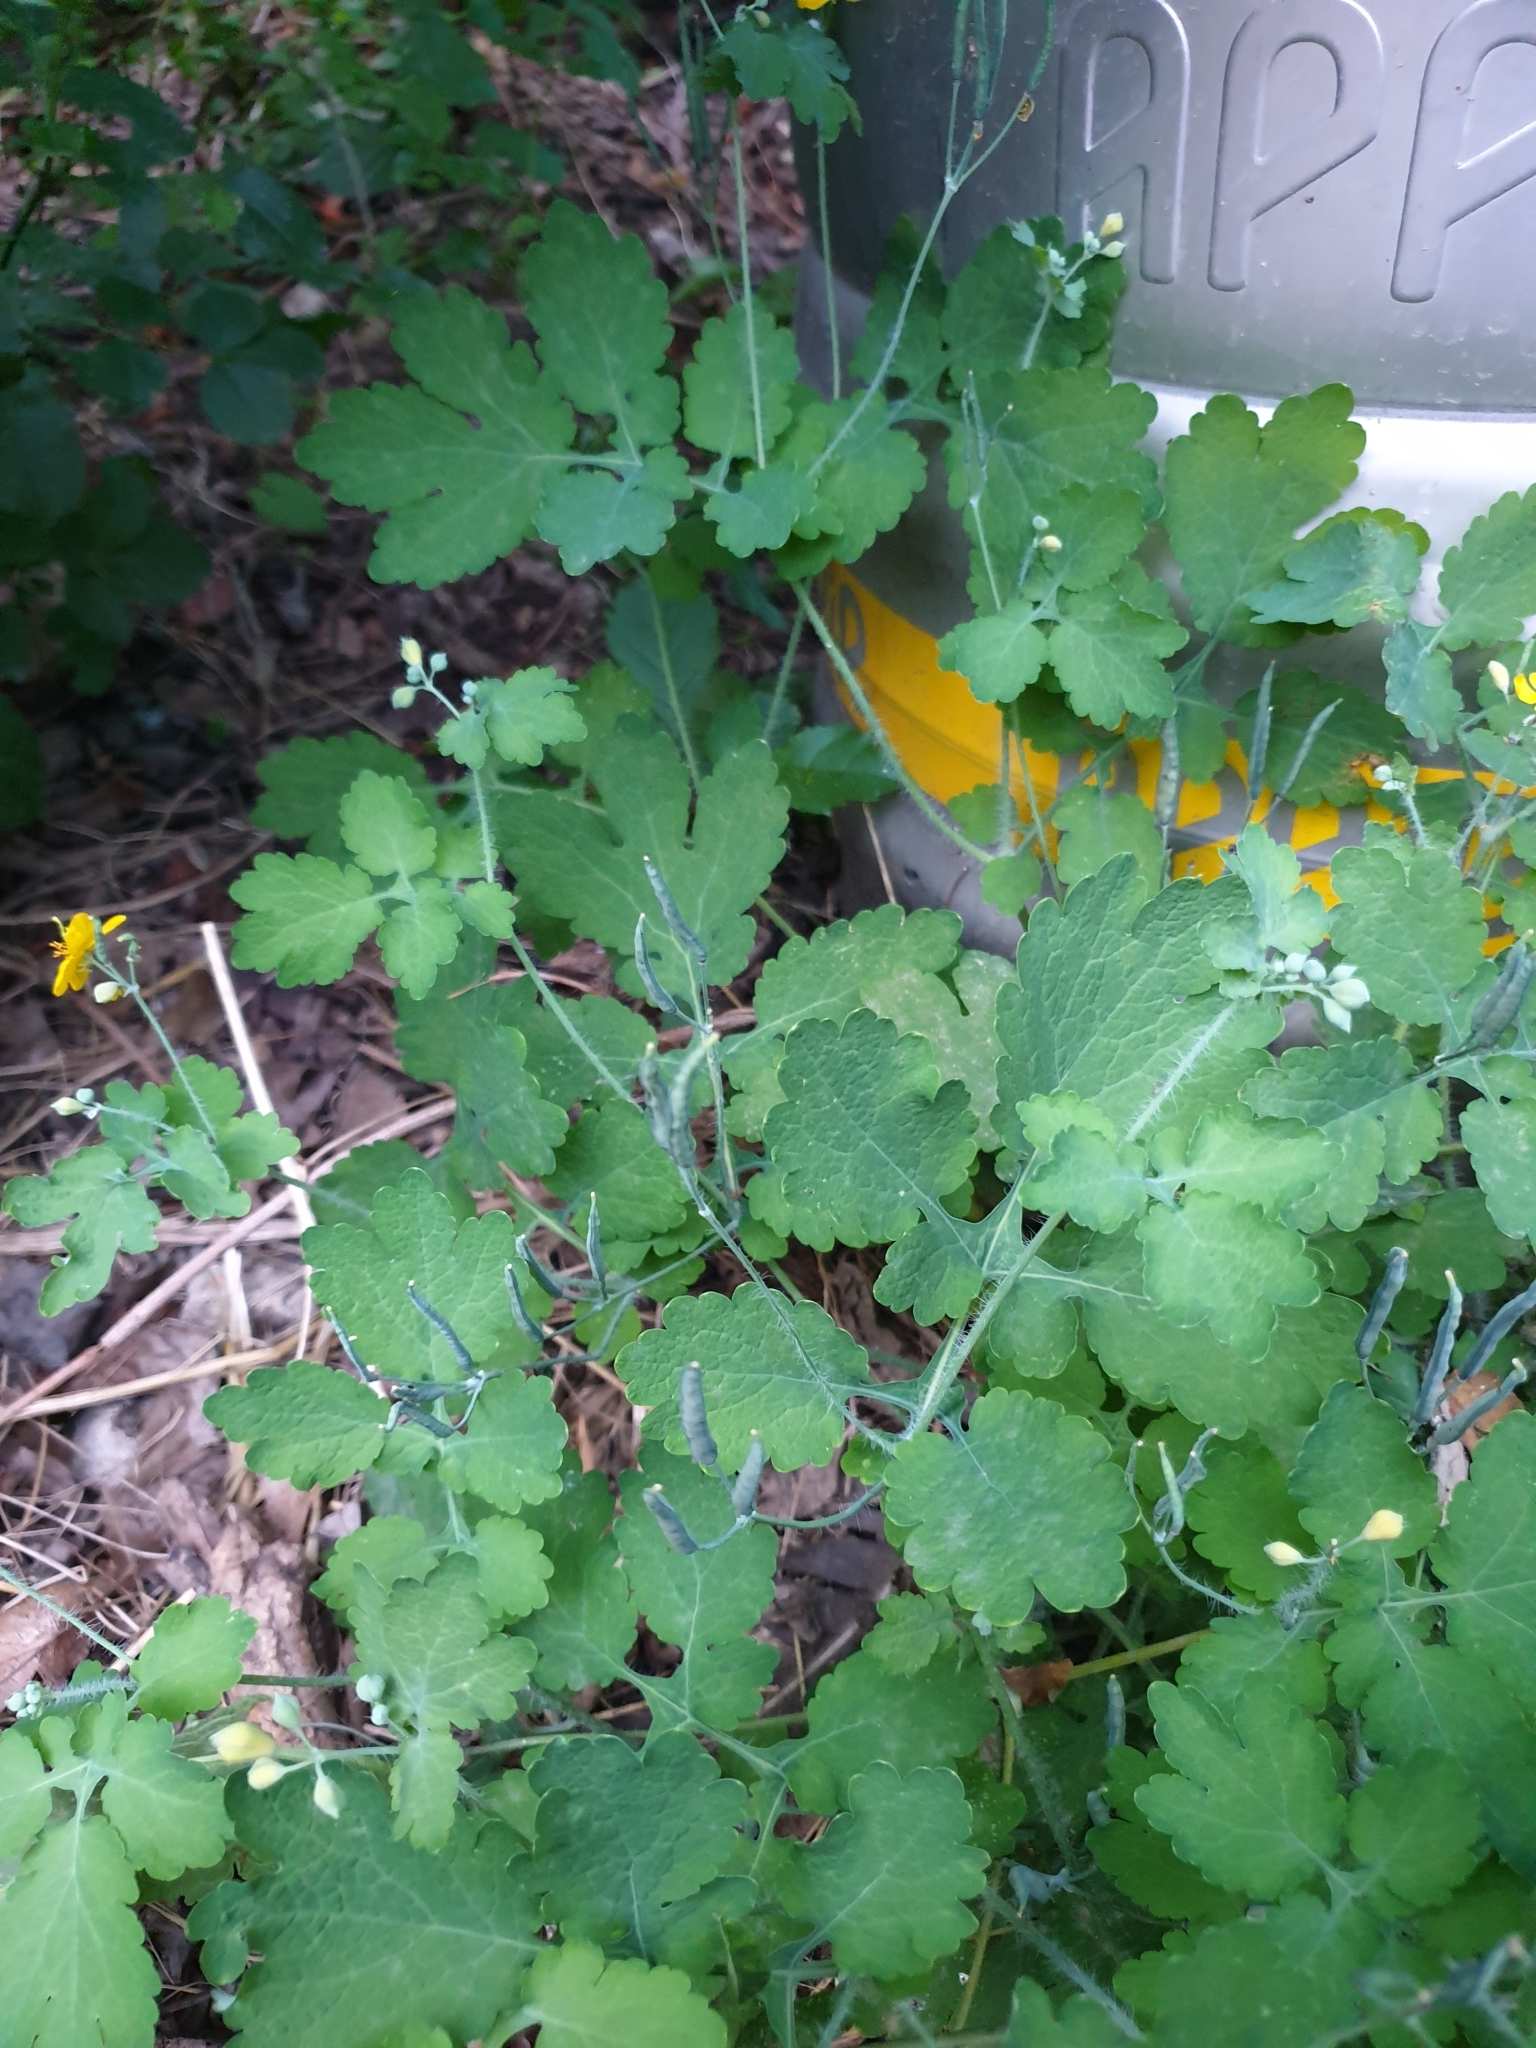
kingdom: Plantae
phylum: Tracheophyta
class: Magnoliopsida
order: Ranunculales
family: Papaveraceae
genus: Chelidonium
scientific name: Chelidonium majus
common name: Greater celandine
